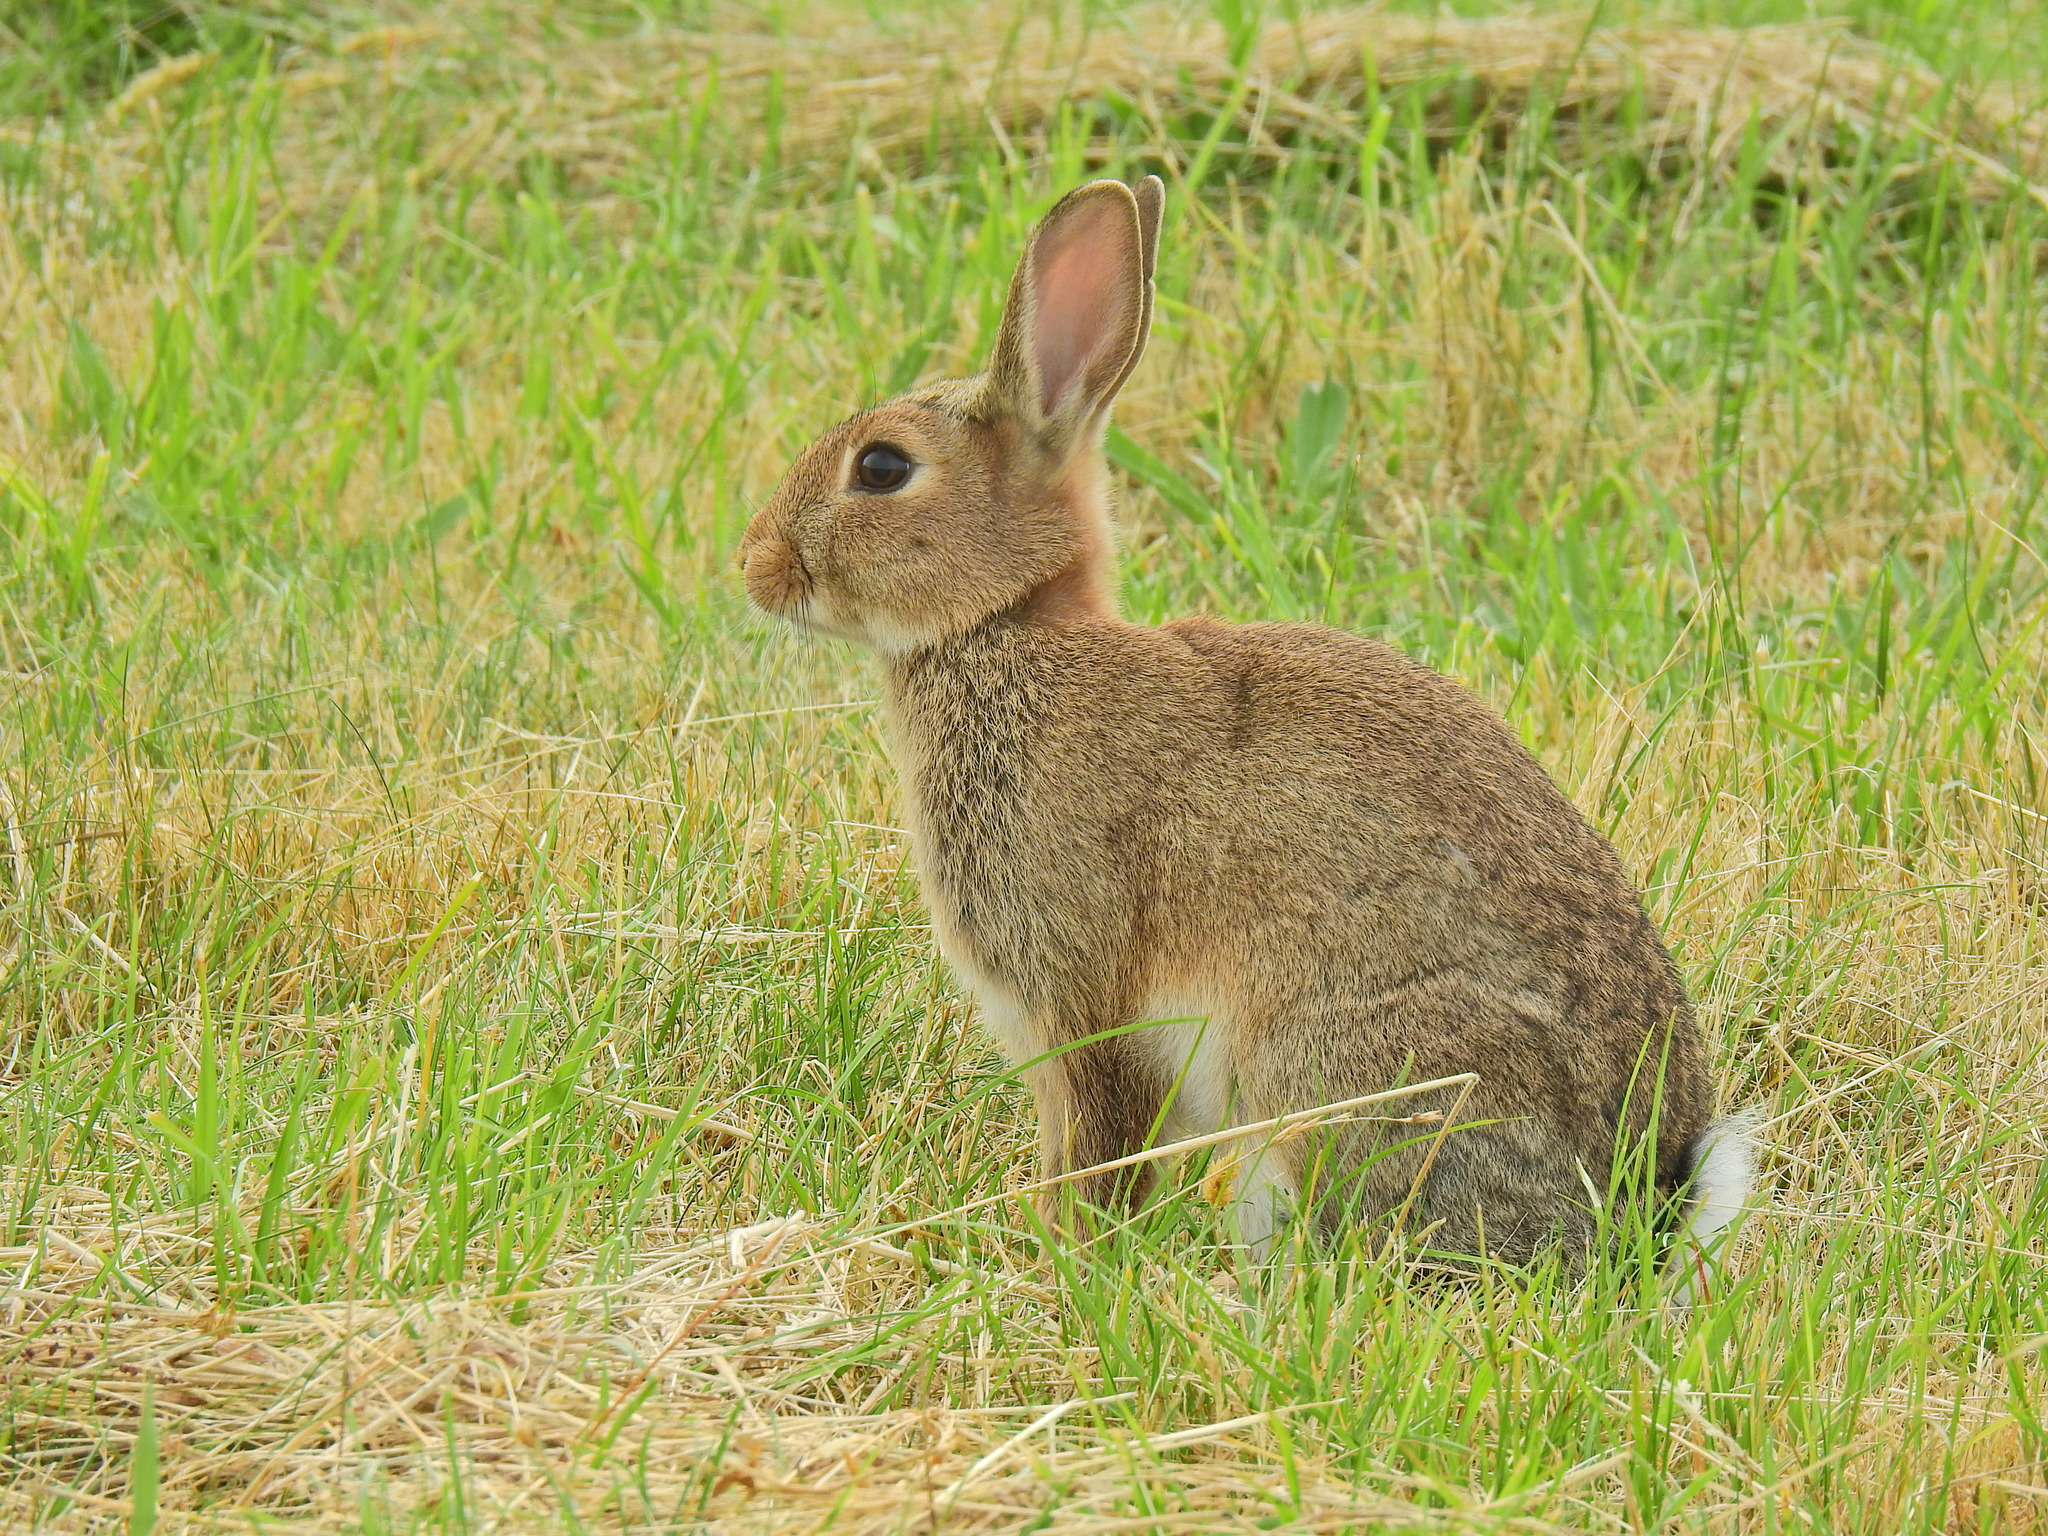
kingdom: Animalia
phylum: Chordata
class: Mammalia
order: Lagomorpha
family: Leporidae
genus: Oryctolagus
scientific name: Oryctolagus cuniculus
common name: European rabbit
